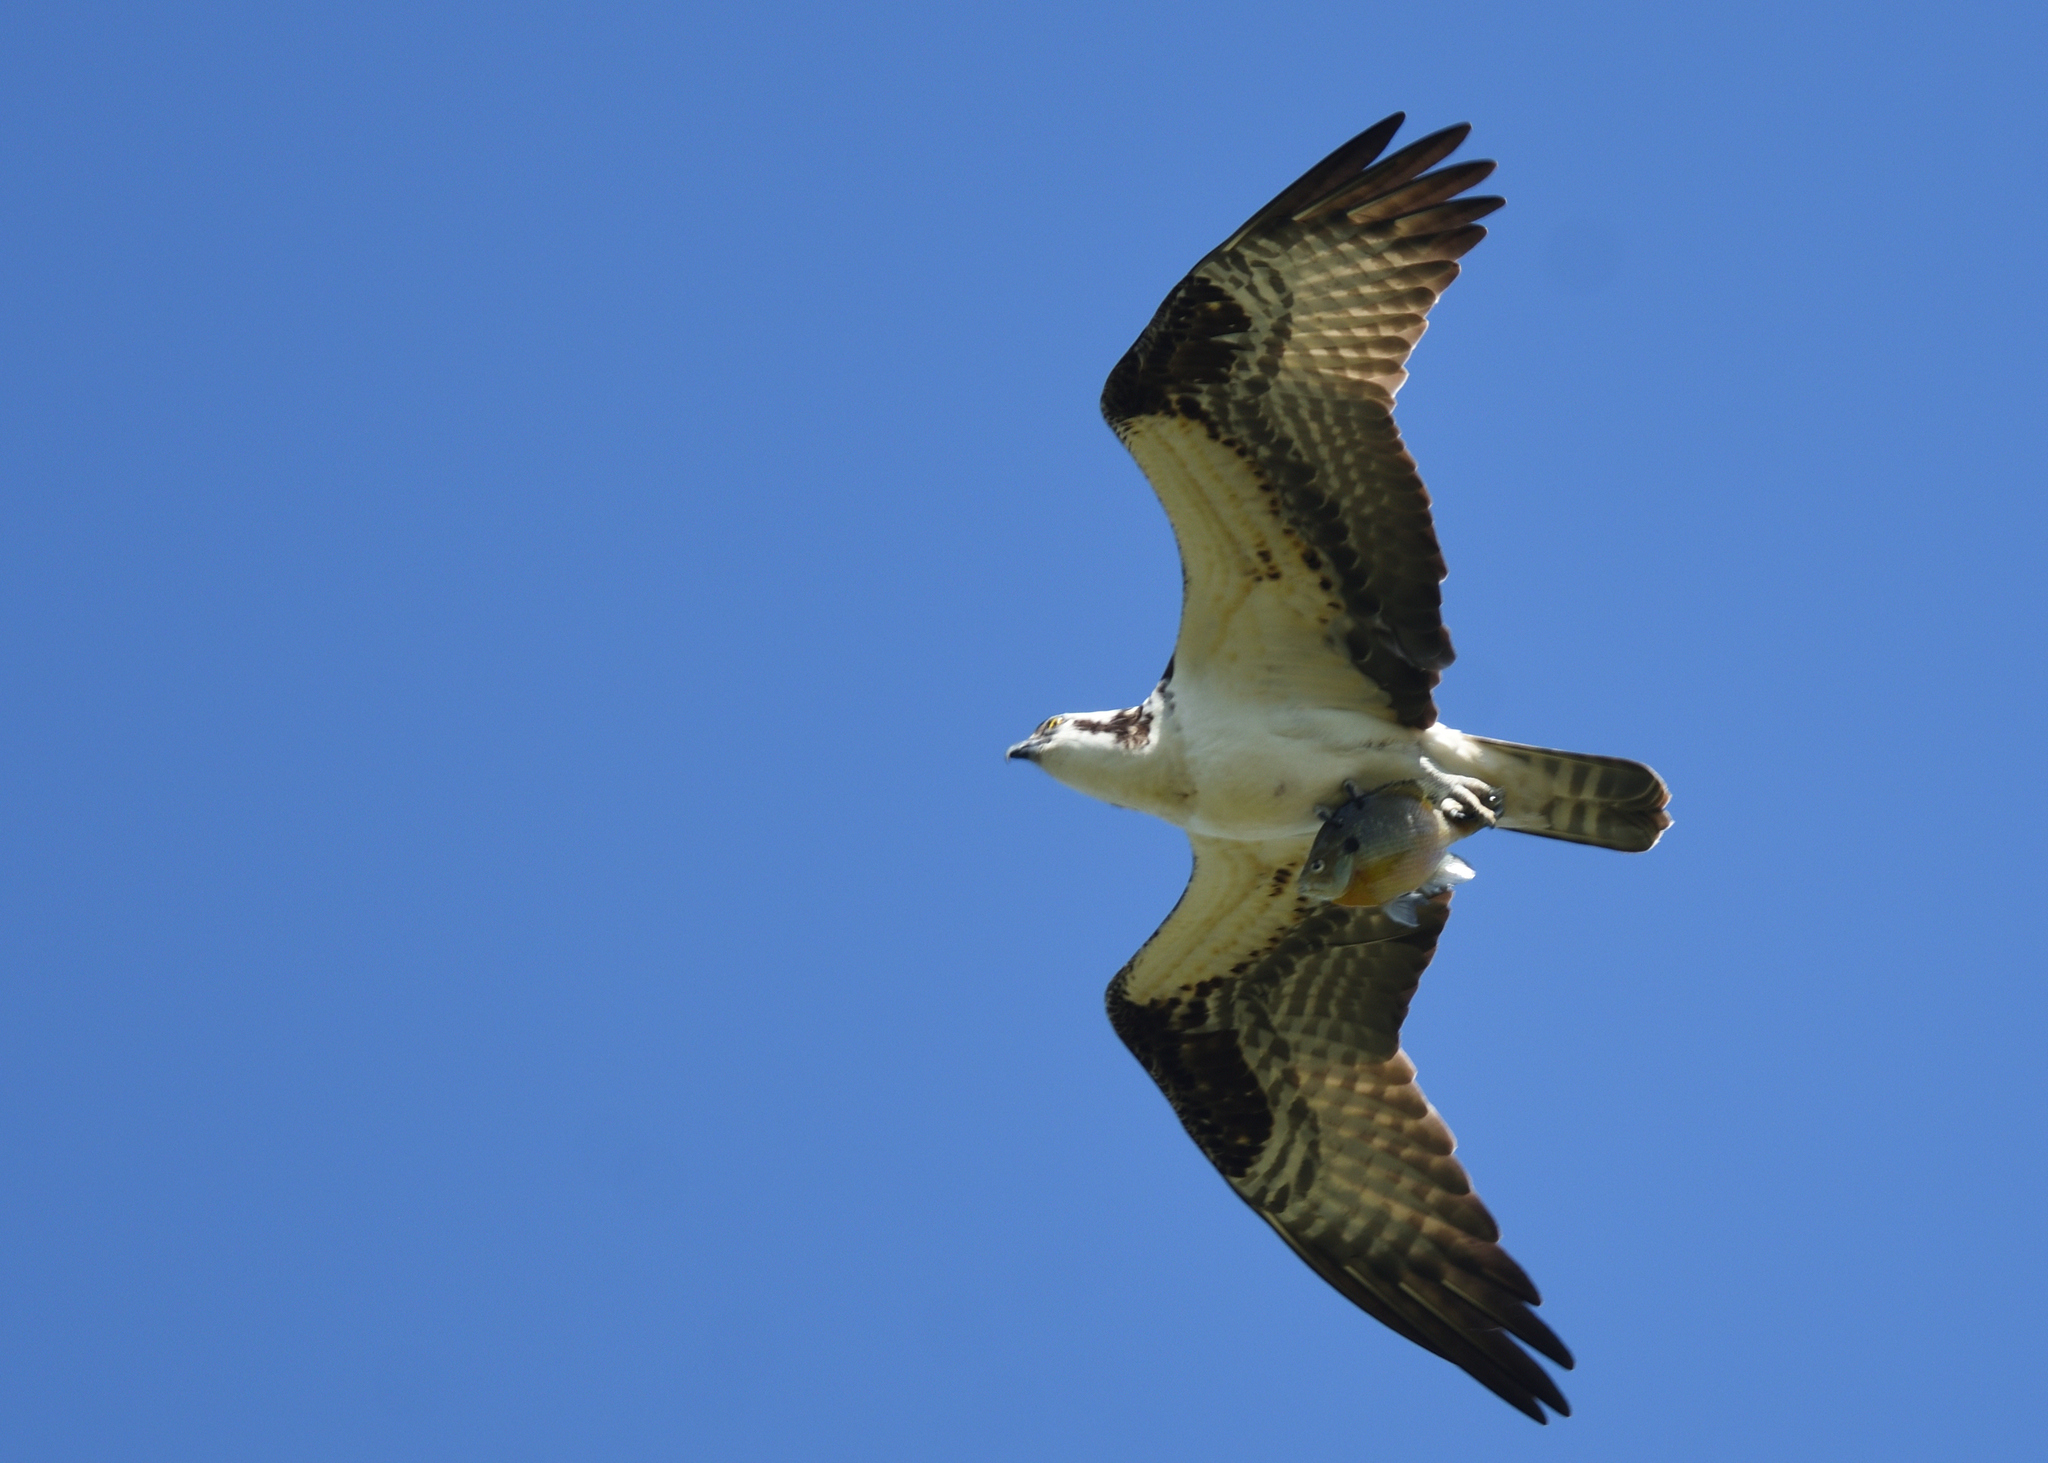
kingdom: Animalia
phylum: Chordata
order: Perciformes
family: Centrarchidae
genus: Lepomis
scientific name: Lepomis macrochirus
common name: Bluegill
